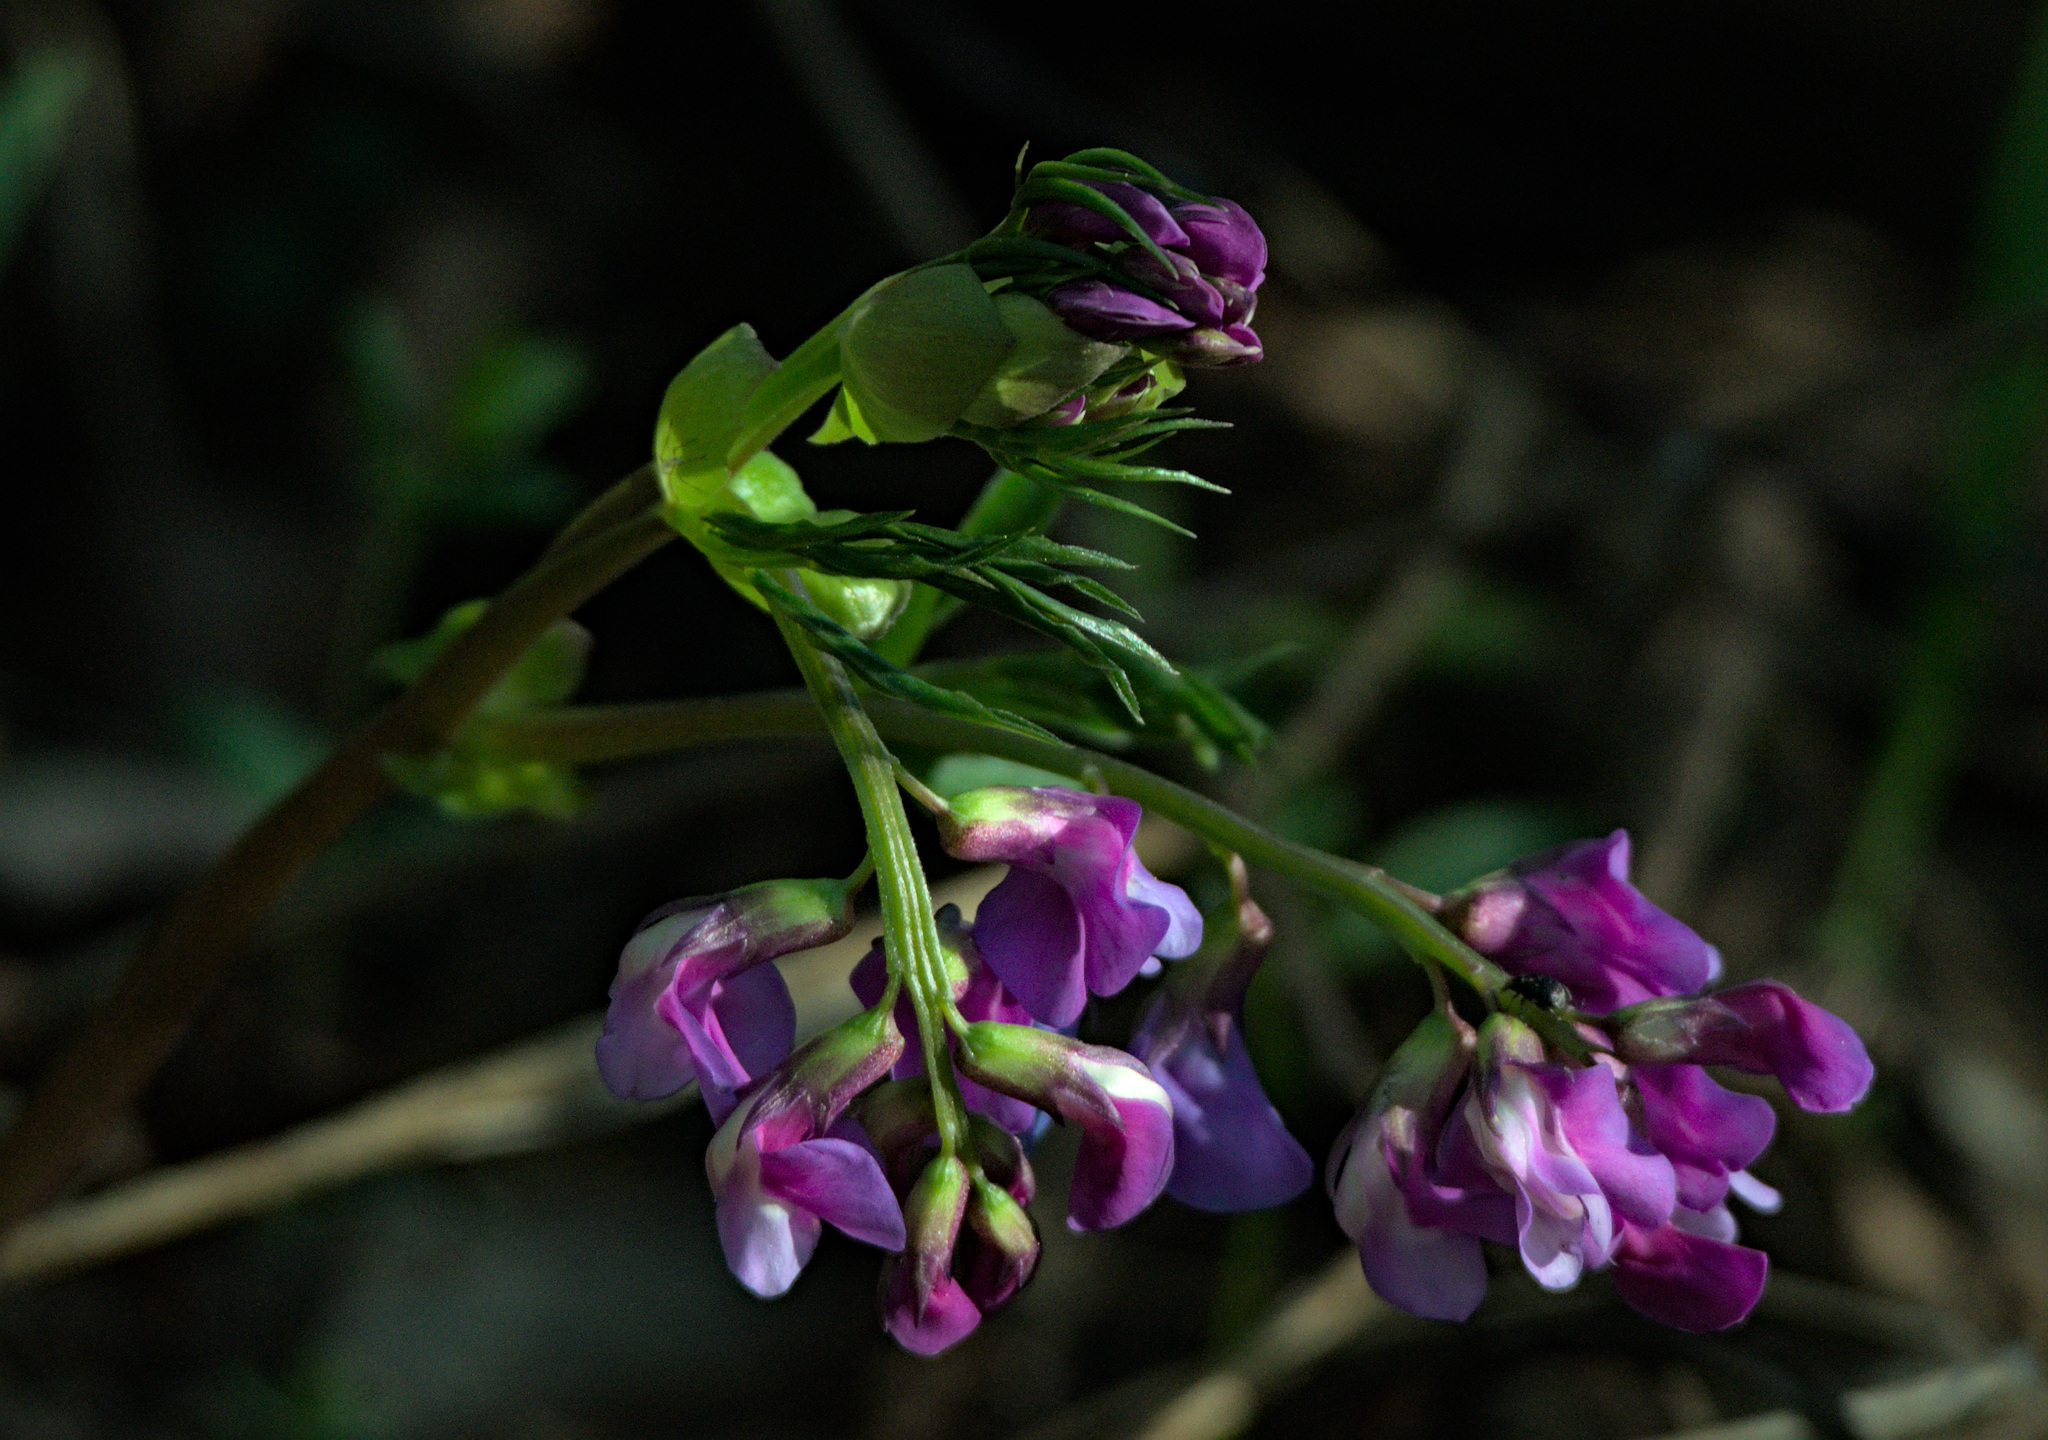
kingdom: Plantae
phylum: Tracheophyta
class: Magnoliopsida
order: Fabales
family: Fabaceae
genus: Lathyrus
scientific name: Lathyrus vernus
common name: Spring pea
